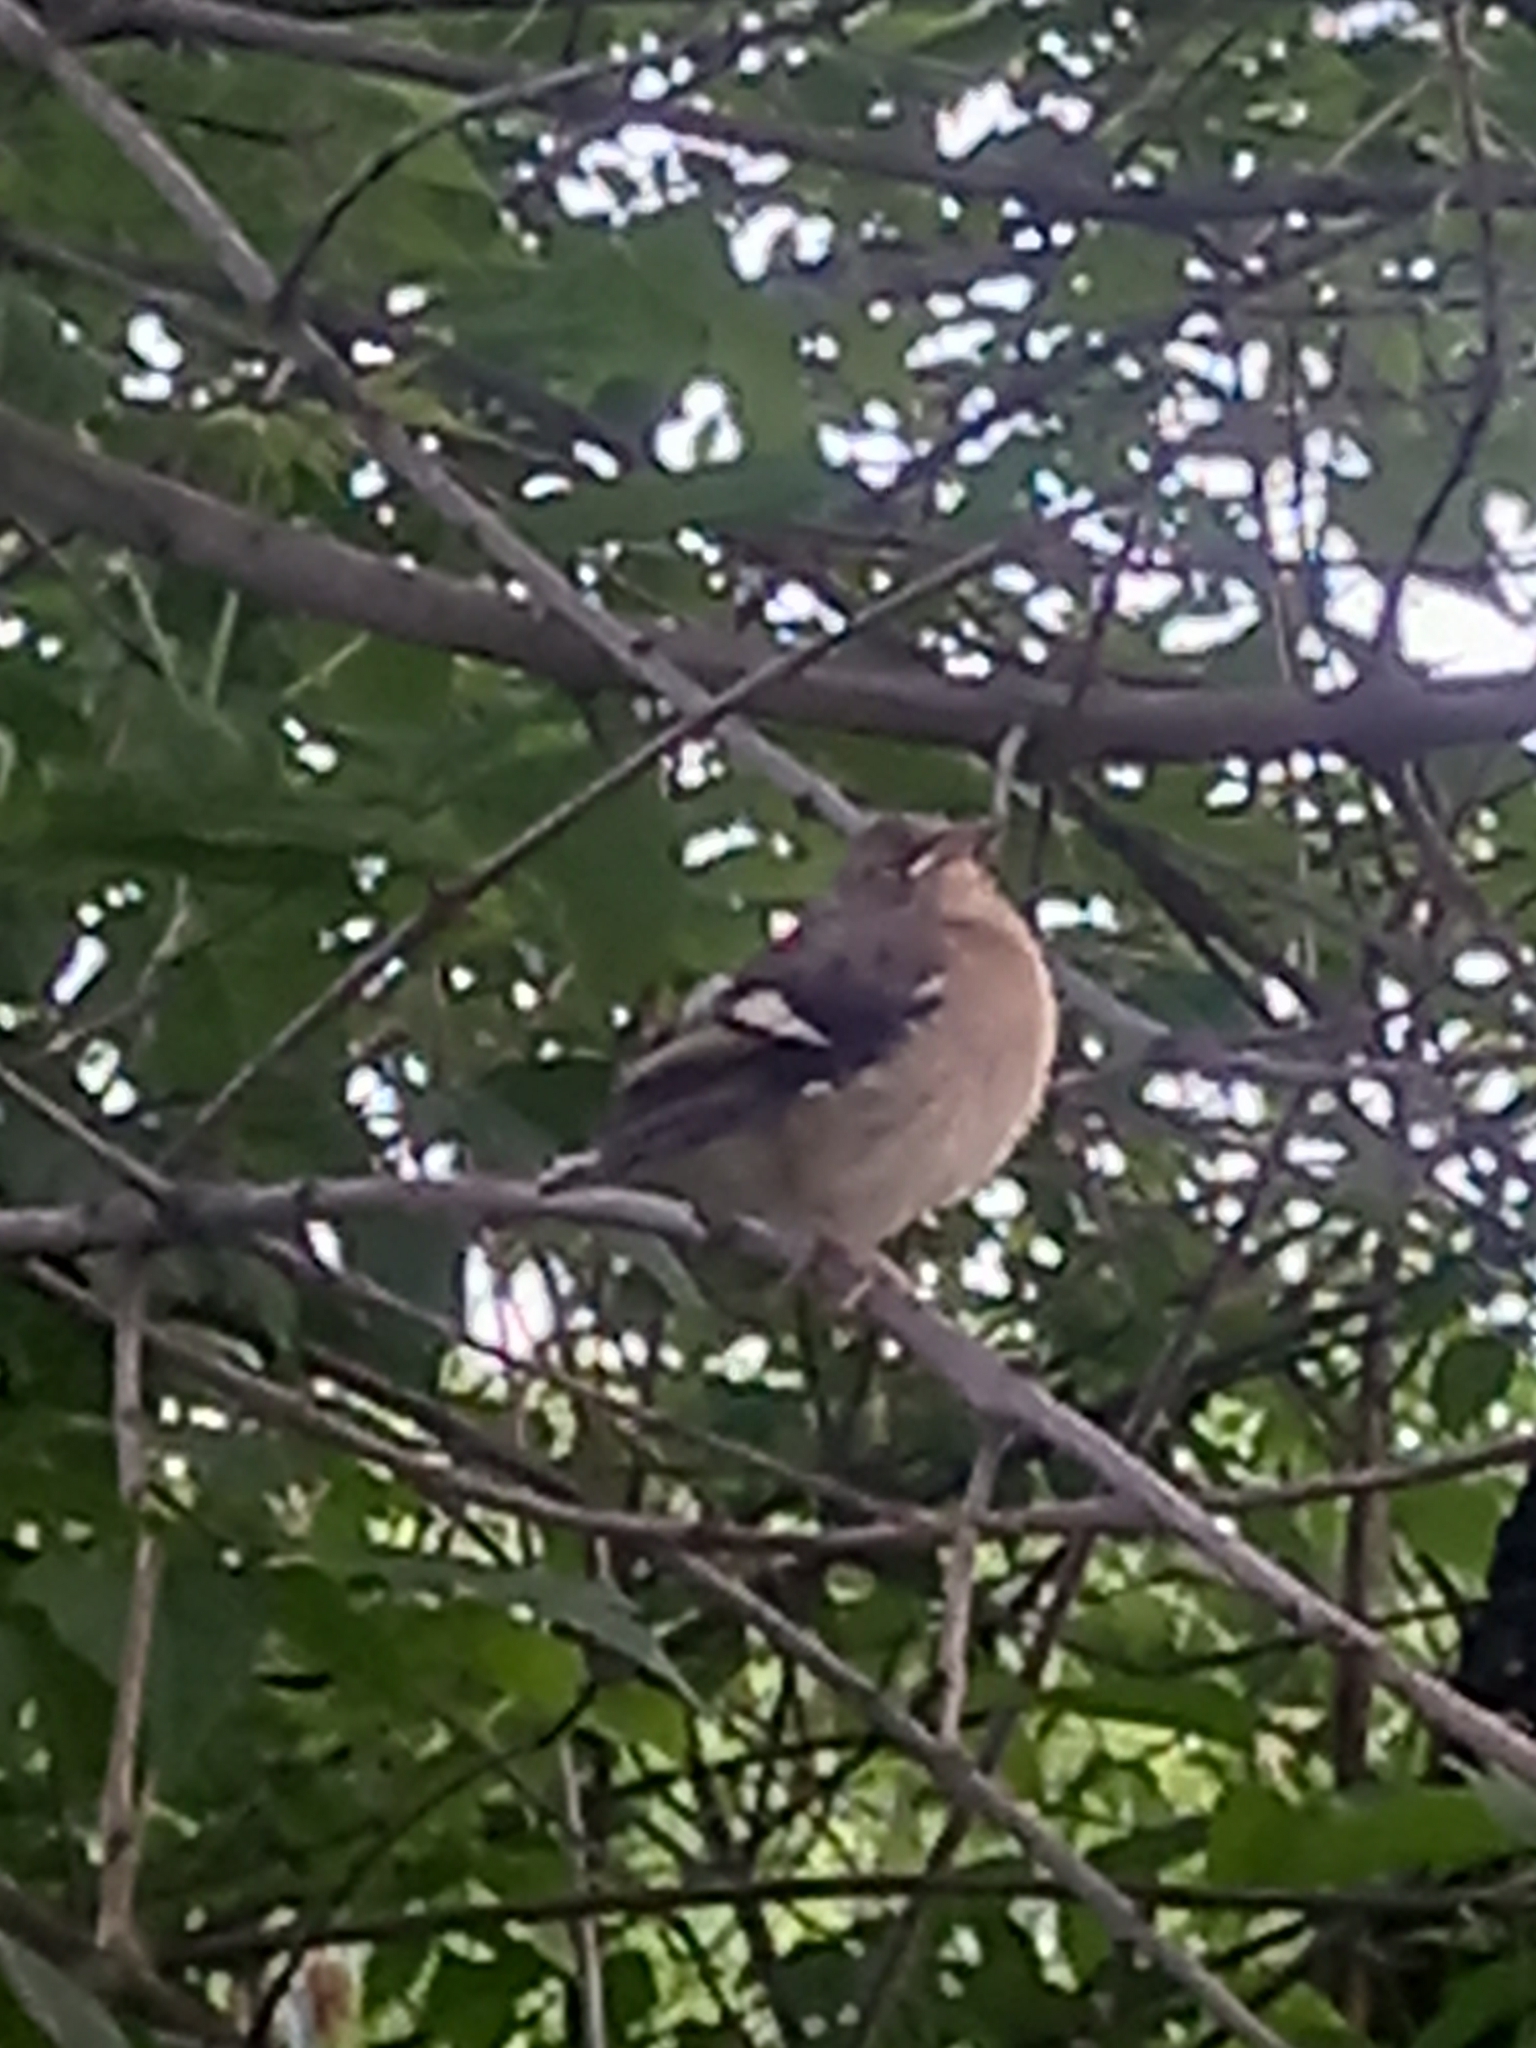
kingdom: Animalia
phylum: Chordata
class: Aves
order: Passeriformes
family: Fringillidae
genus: Fringilla
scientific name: Fringilla coelebs
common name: Common chaffinch
